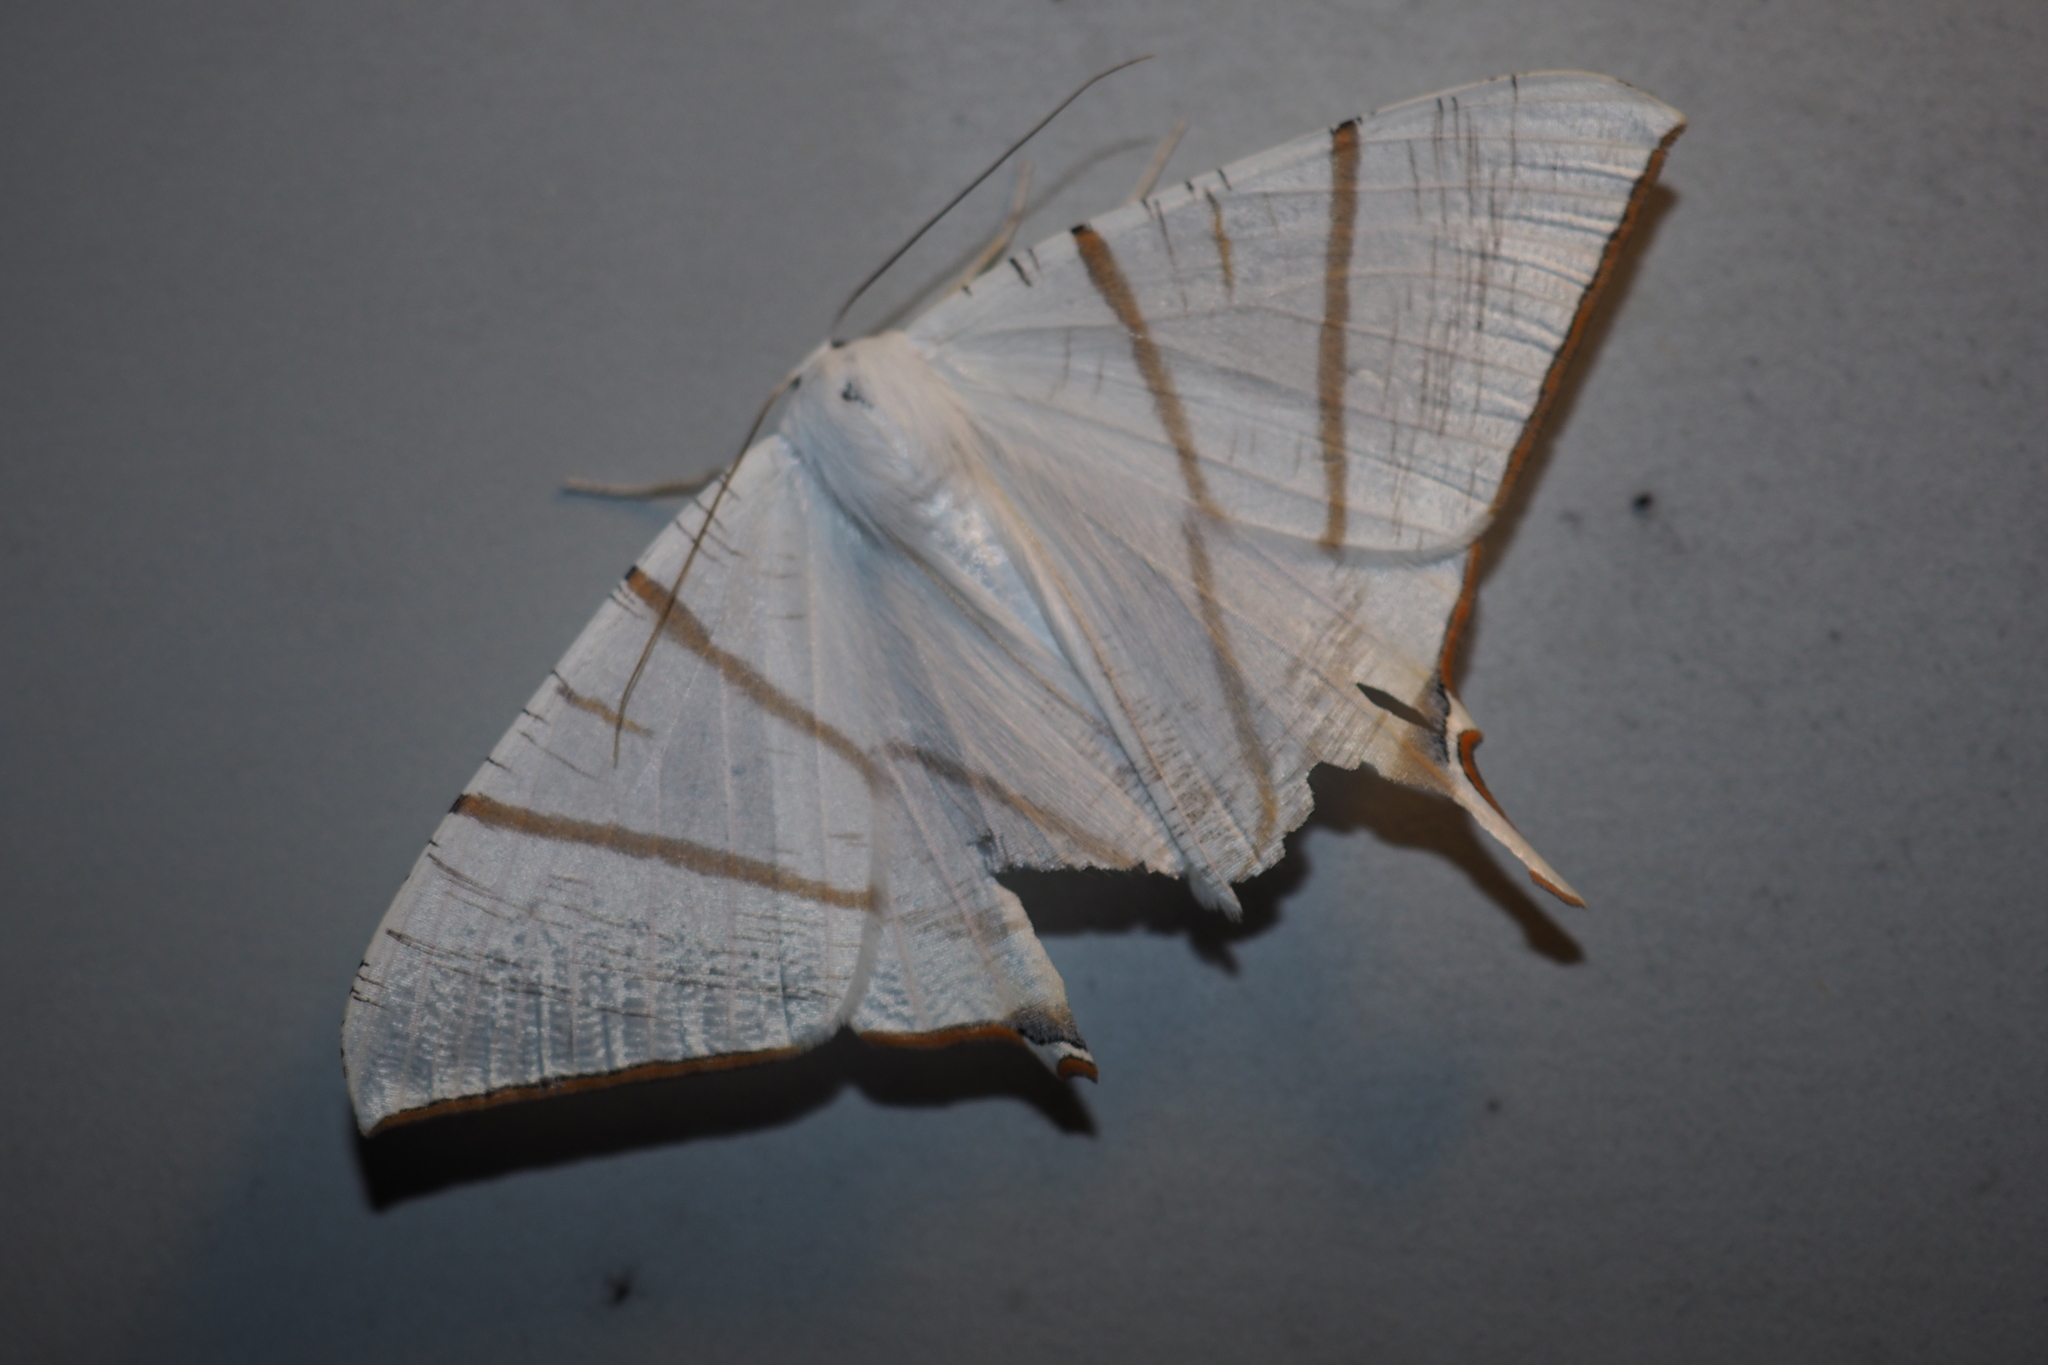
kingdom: Animalia
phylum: Arthropoda
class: Insecta
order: Lepidoptera
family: Geometridae
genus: Ourapteryx
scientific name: Ourapteryx clara
